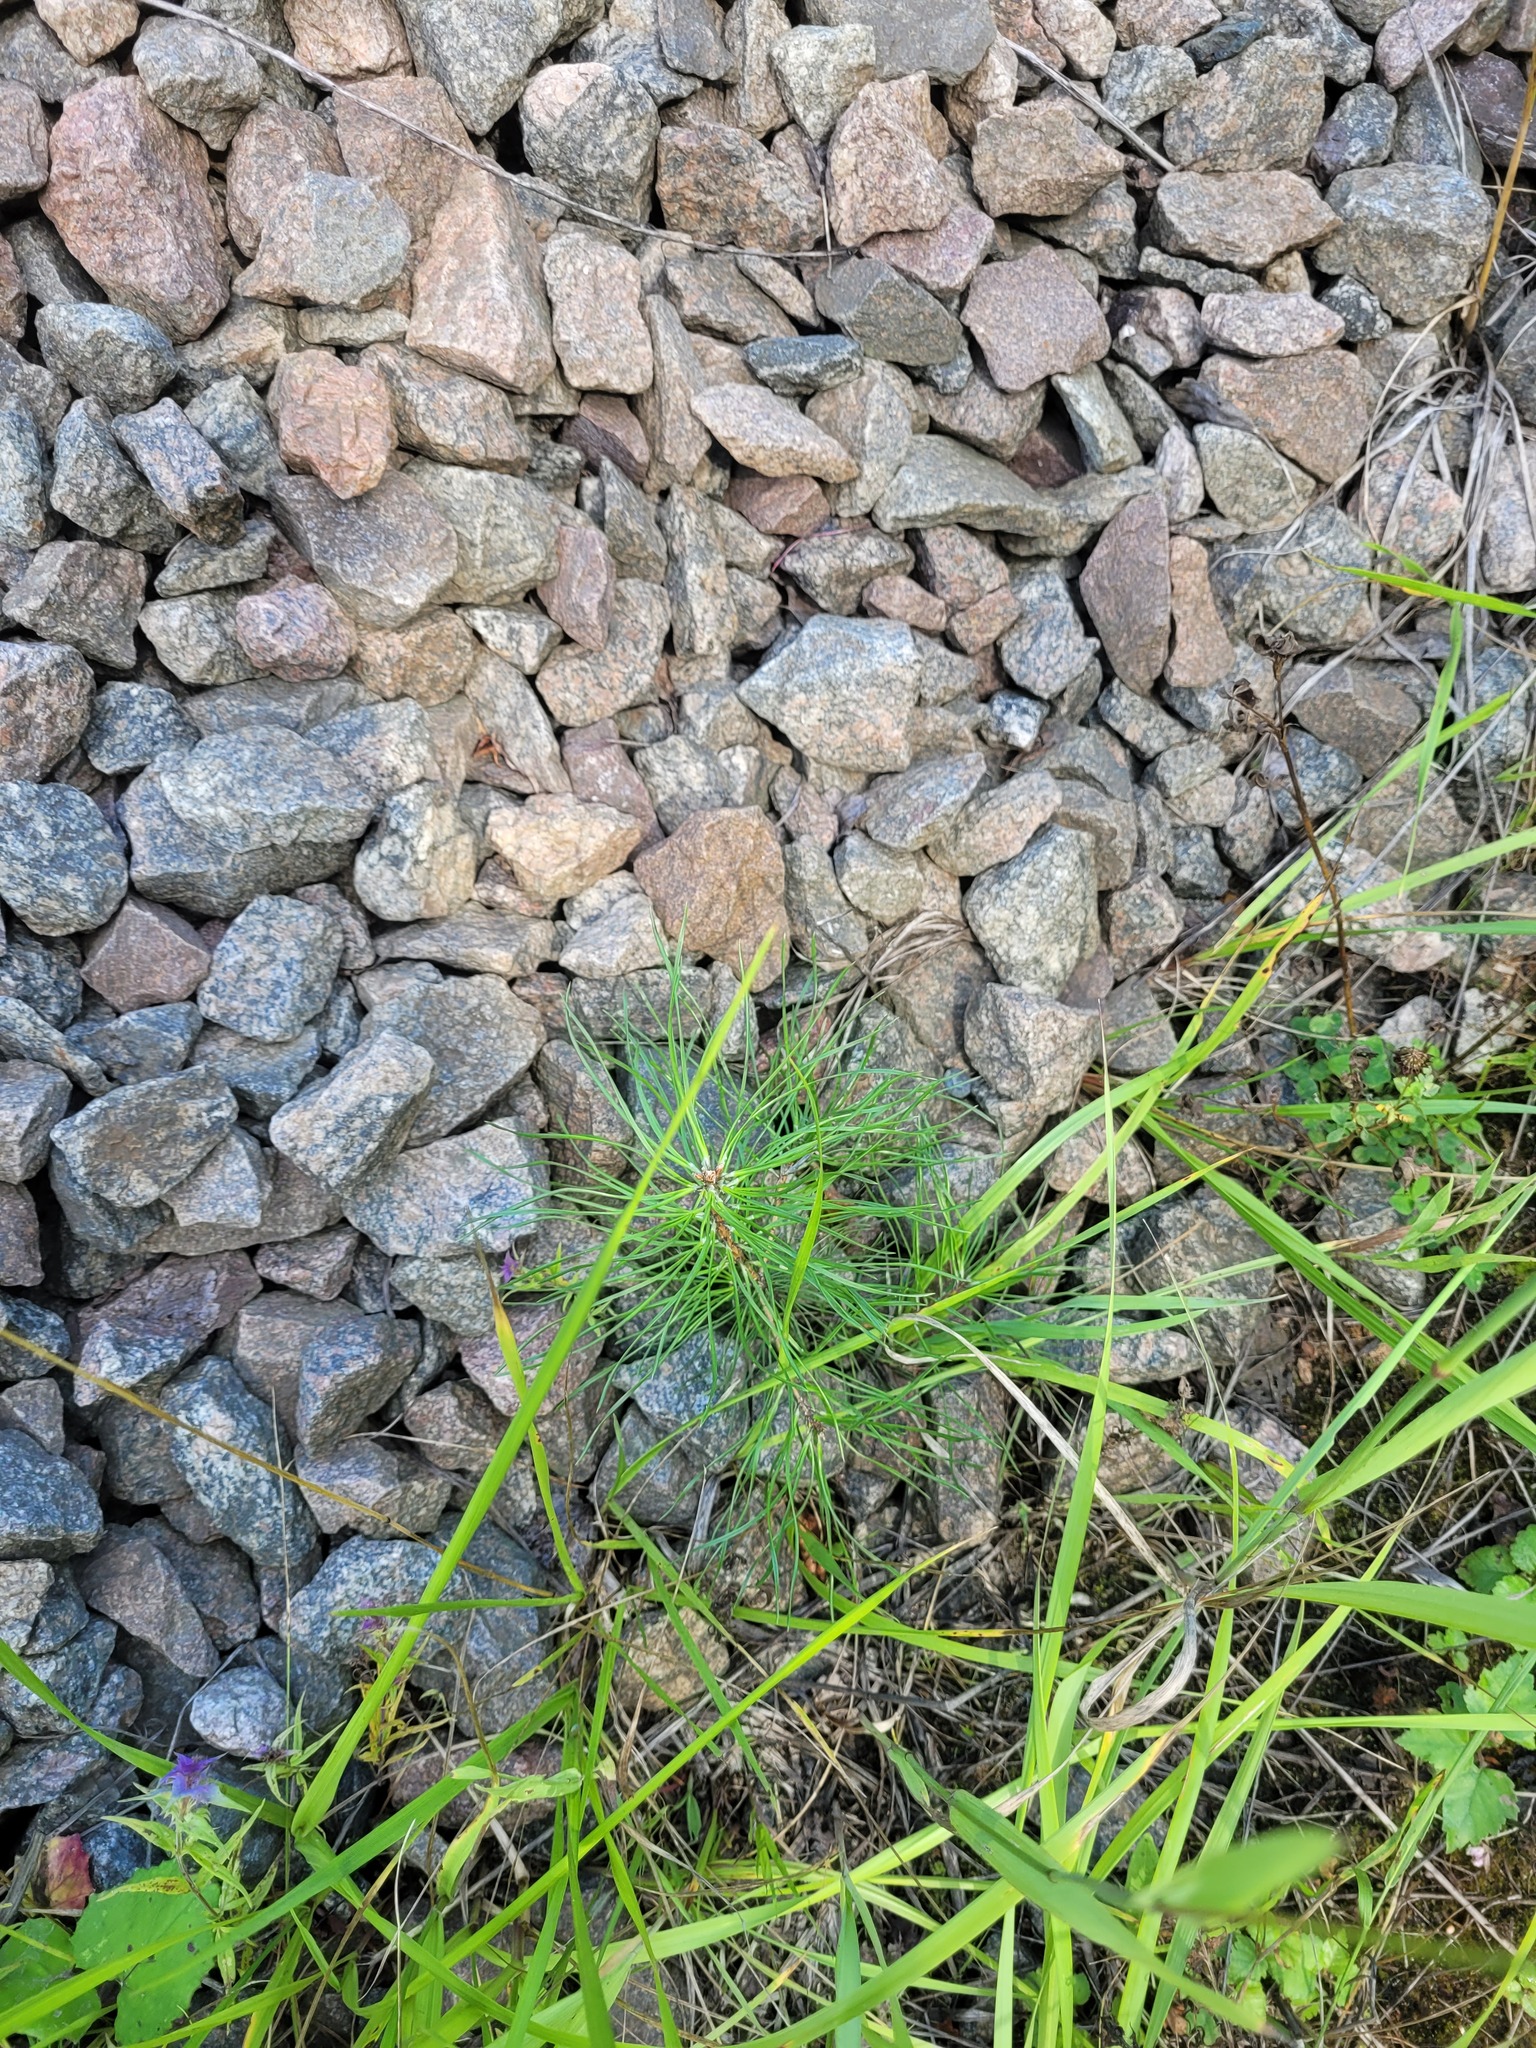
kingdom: Plantae
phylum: Tracheophyta
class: Pinopsida
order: Pinales
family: Pinaceae
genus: Pinus
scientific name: Pinus sylvestris
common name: Scots pine
